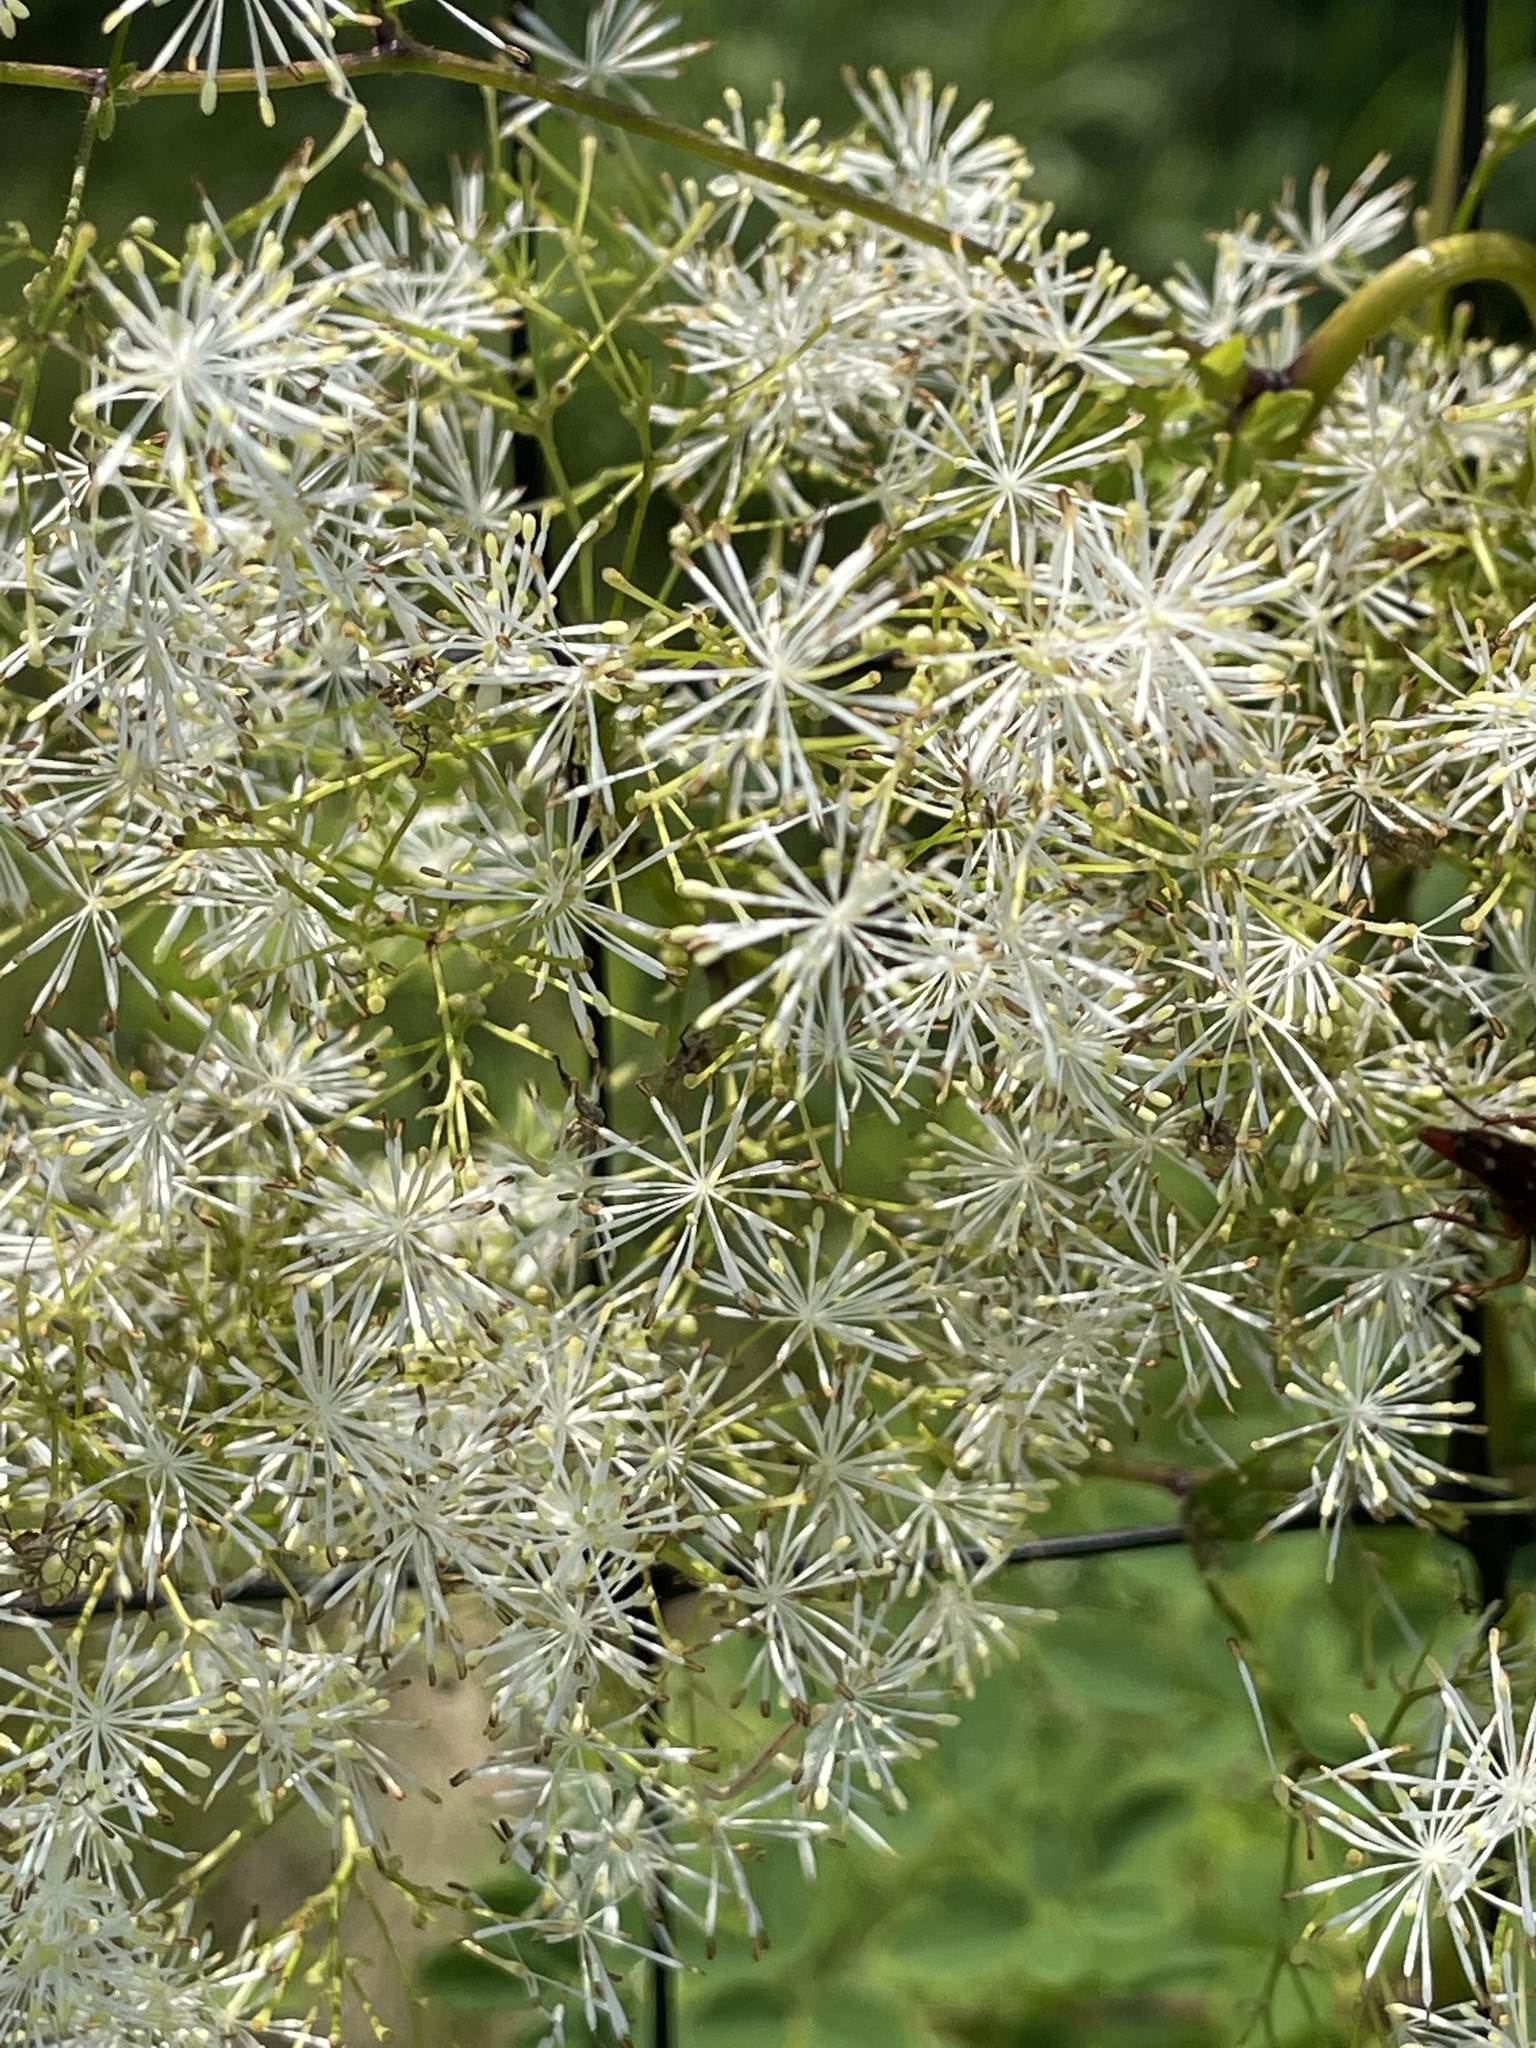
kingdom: Plantae
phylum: Tracheophyta
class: Magnoliopsida
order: Ranunculales
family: Ranunculaceae
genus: Thalictrum
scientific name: Thalictrum pubescens
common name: King-of-the-meadow
